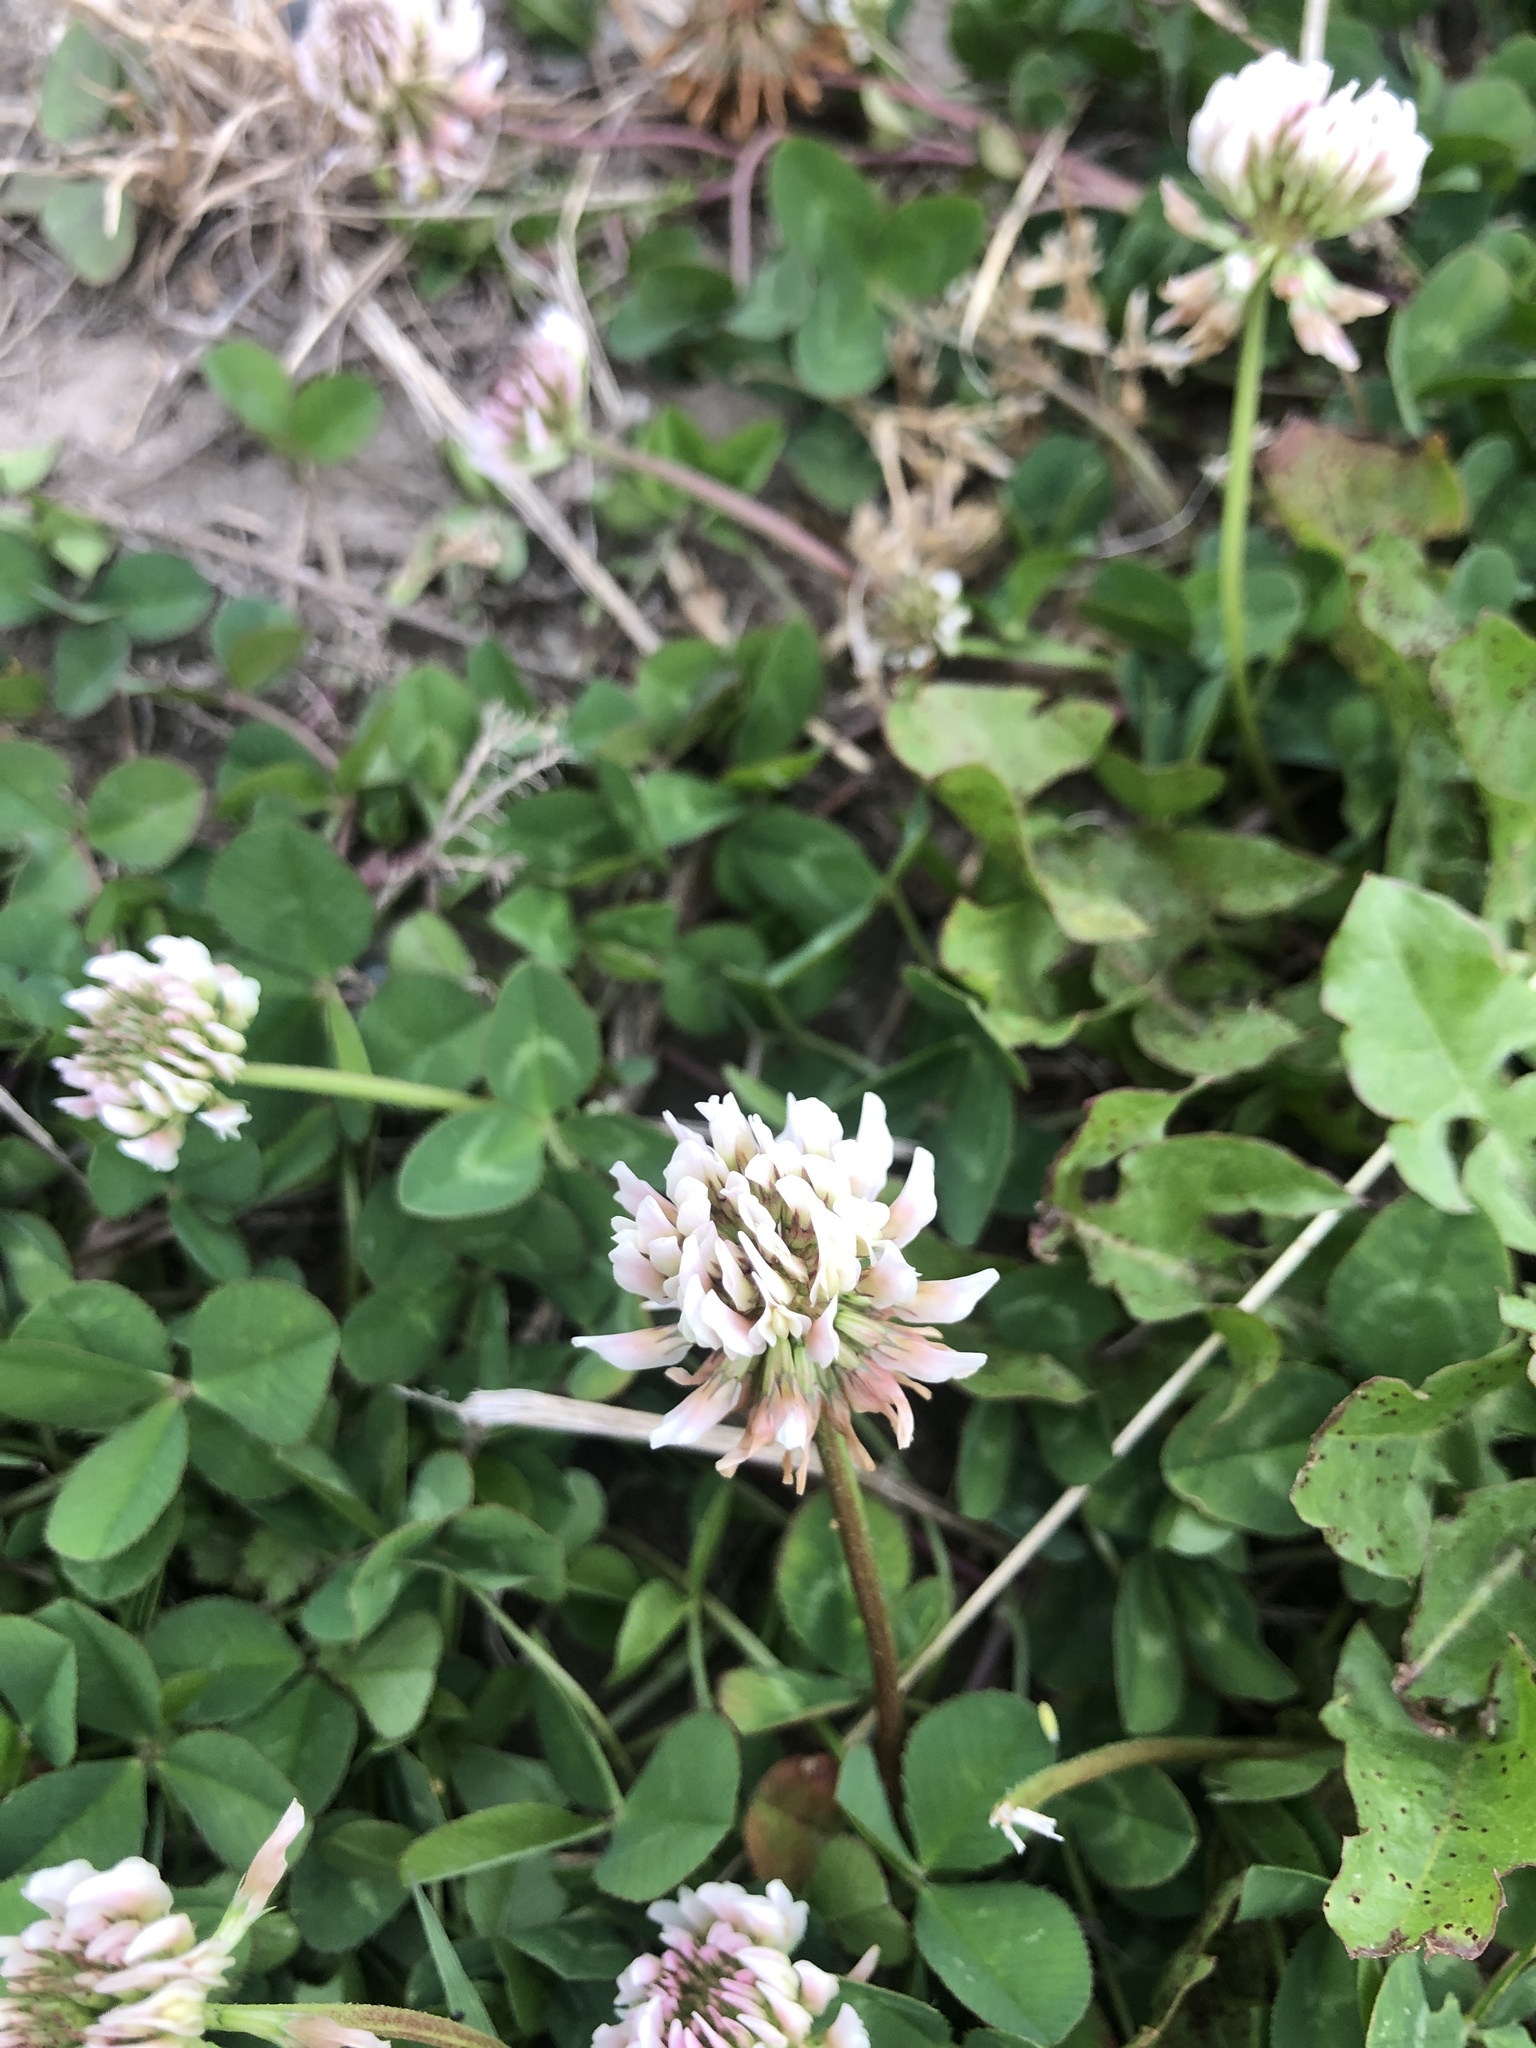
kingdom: Plantae
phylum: Tracheophyta
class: Magnoliopsida
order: Fabales
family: Fabaceae
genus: Trifolium
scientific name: Trifolium repens
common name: White clover
